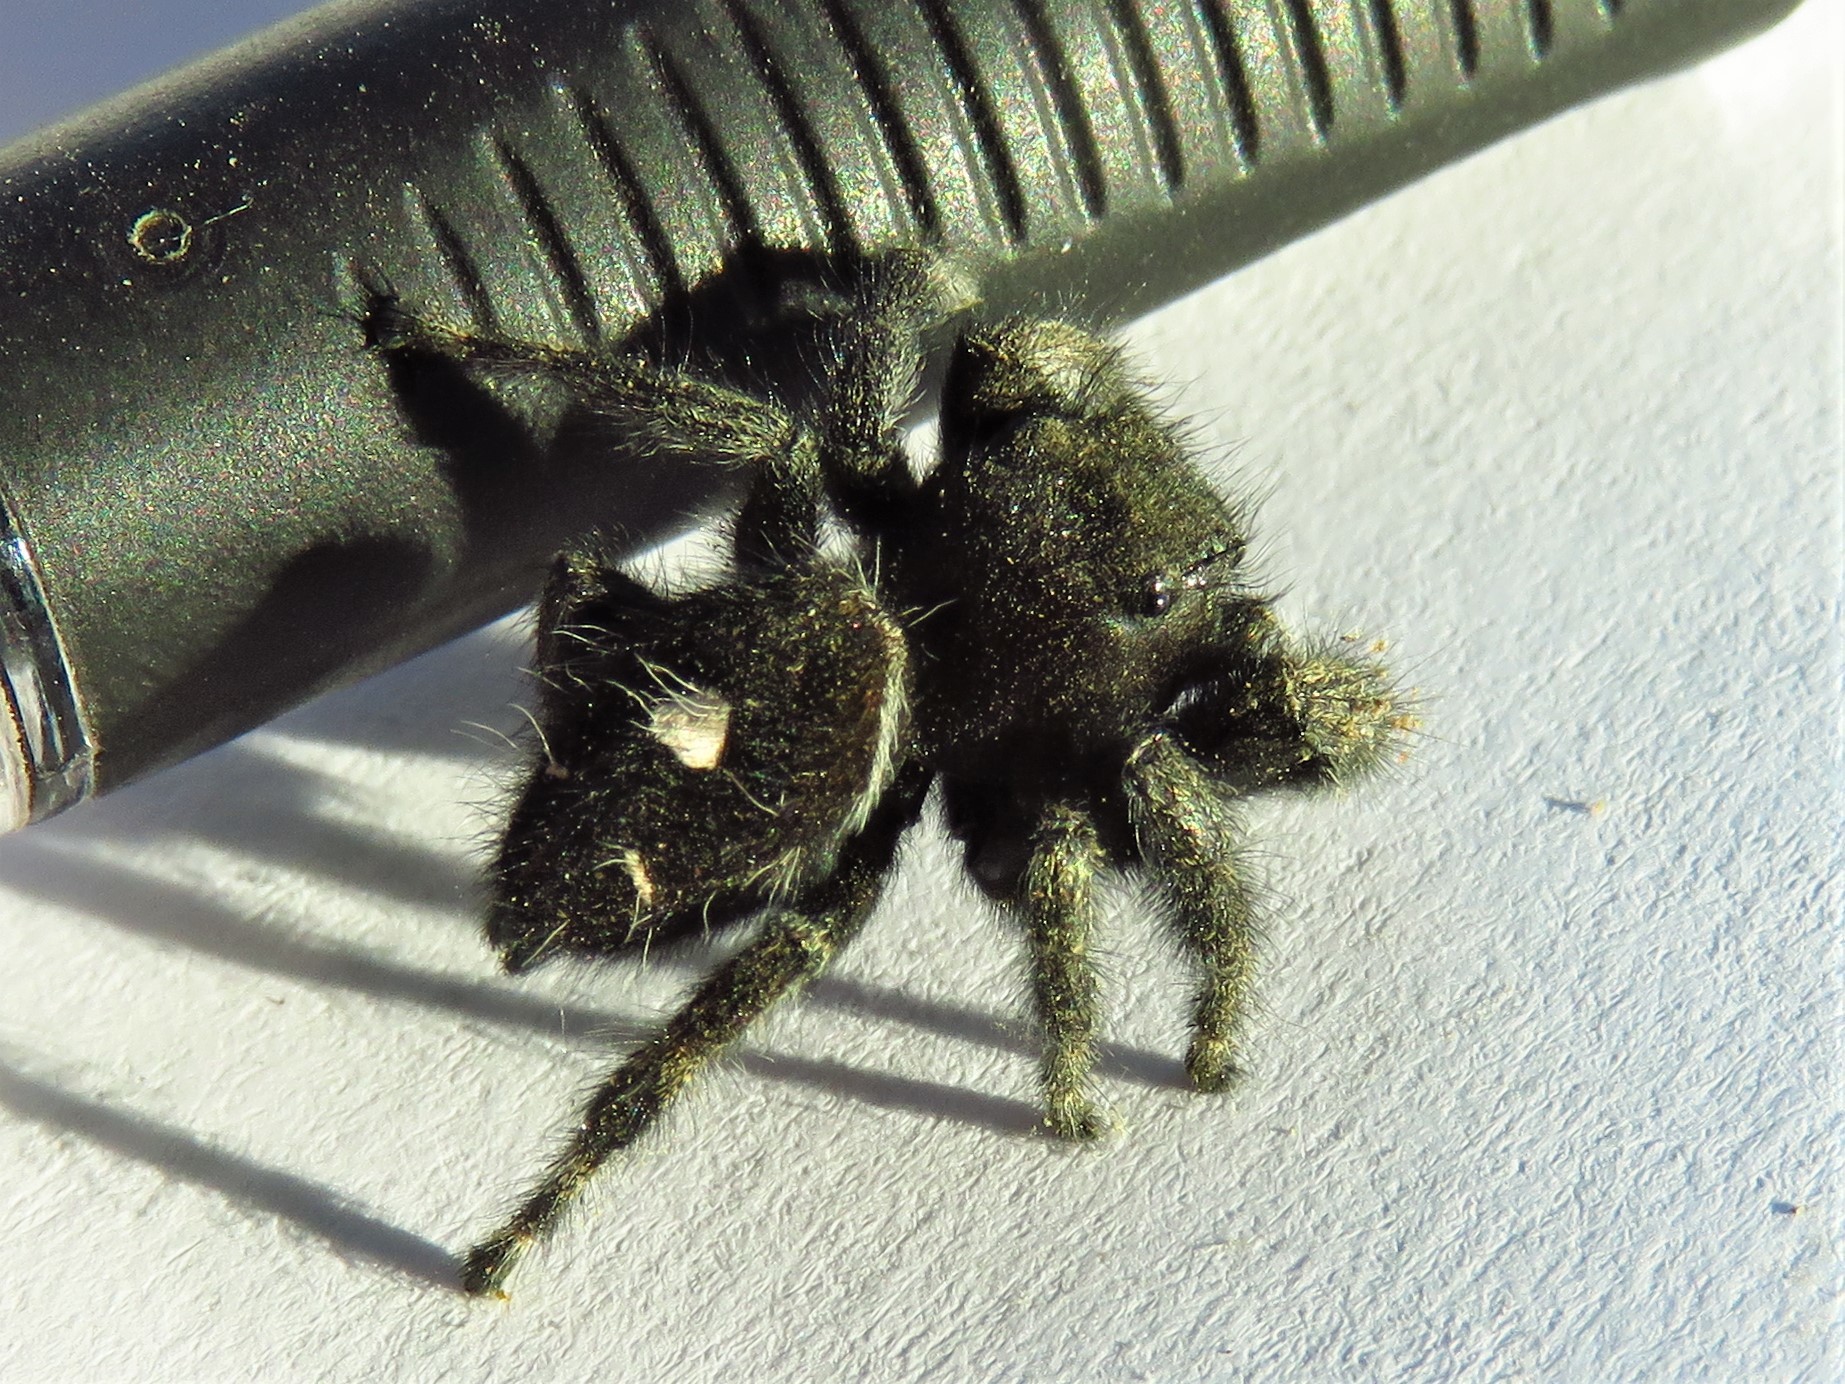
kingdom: Animalia
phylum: Arthropoda
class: Arachnida
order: Araneae
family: Salticidae
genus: Phidippus
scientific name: Phidippus audax
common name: Bold jumper
